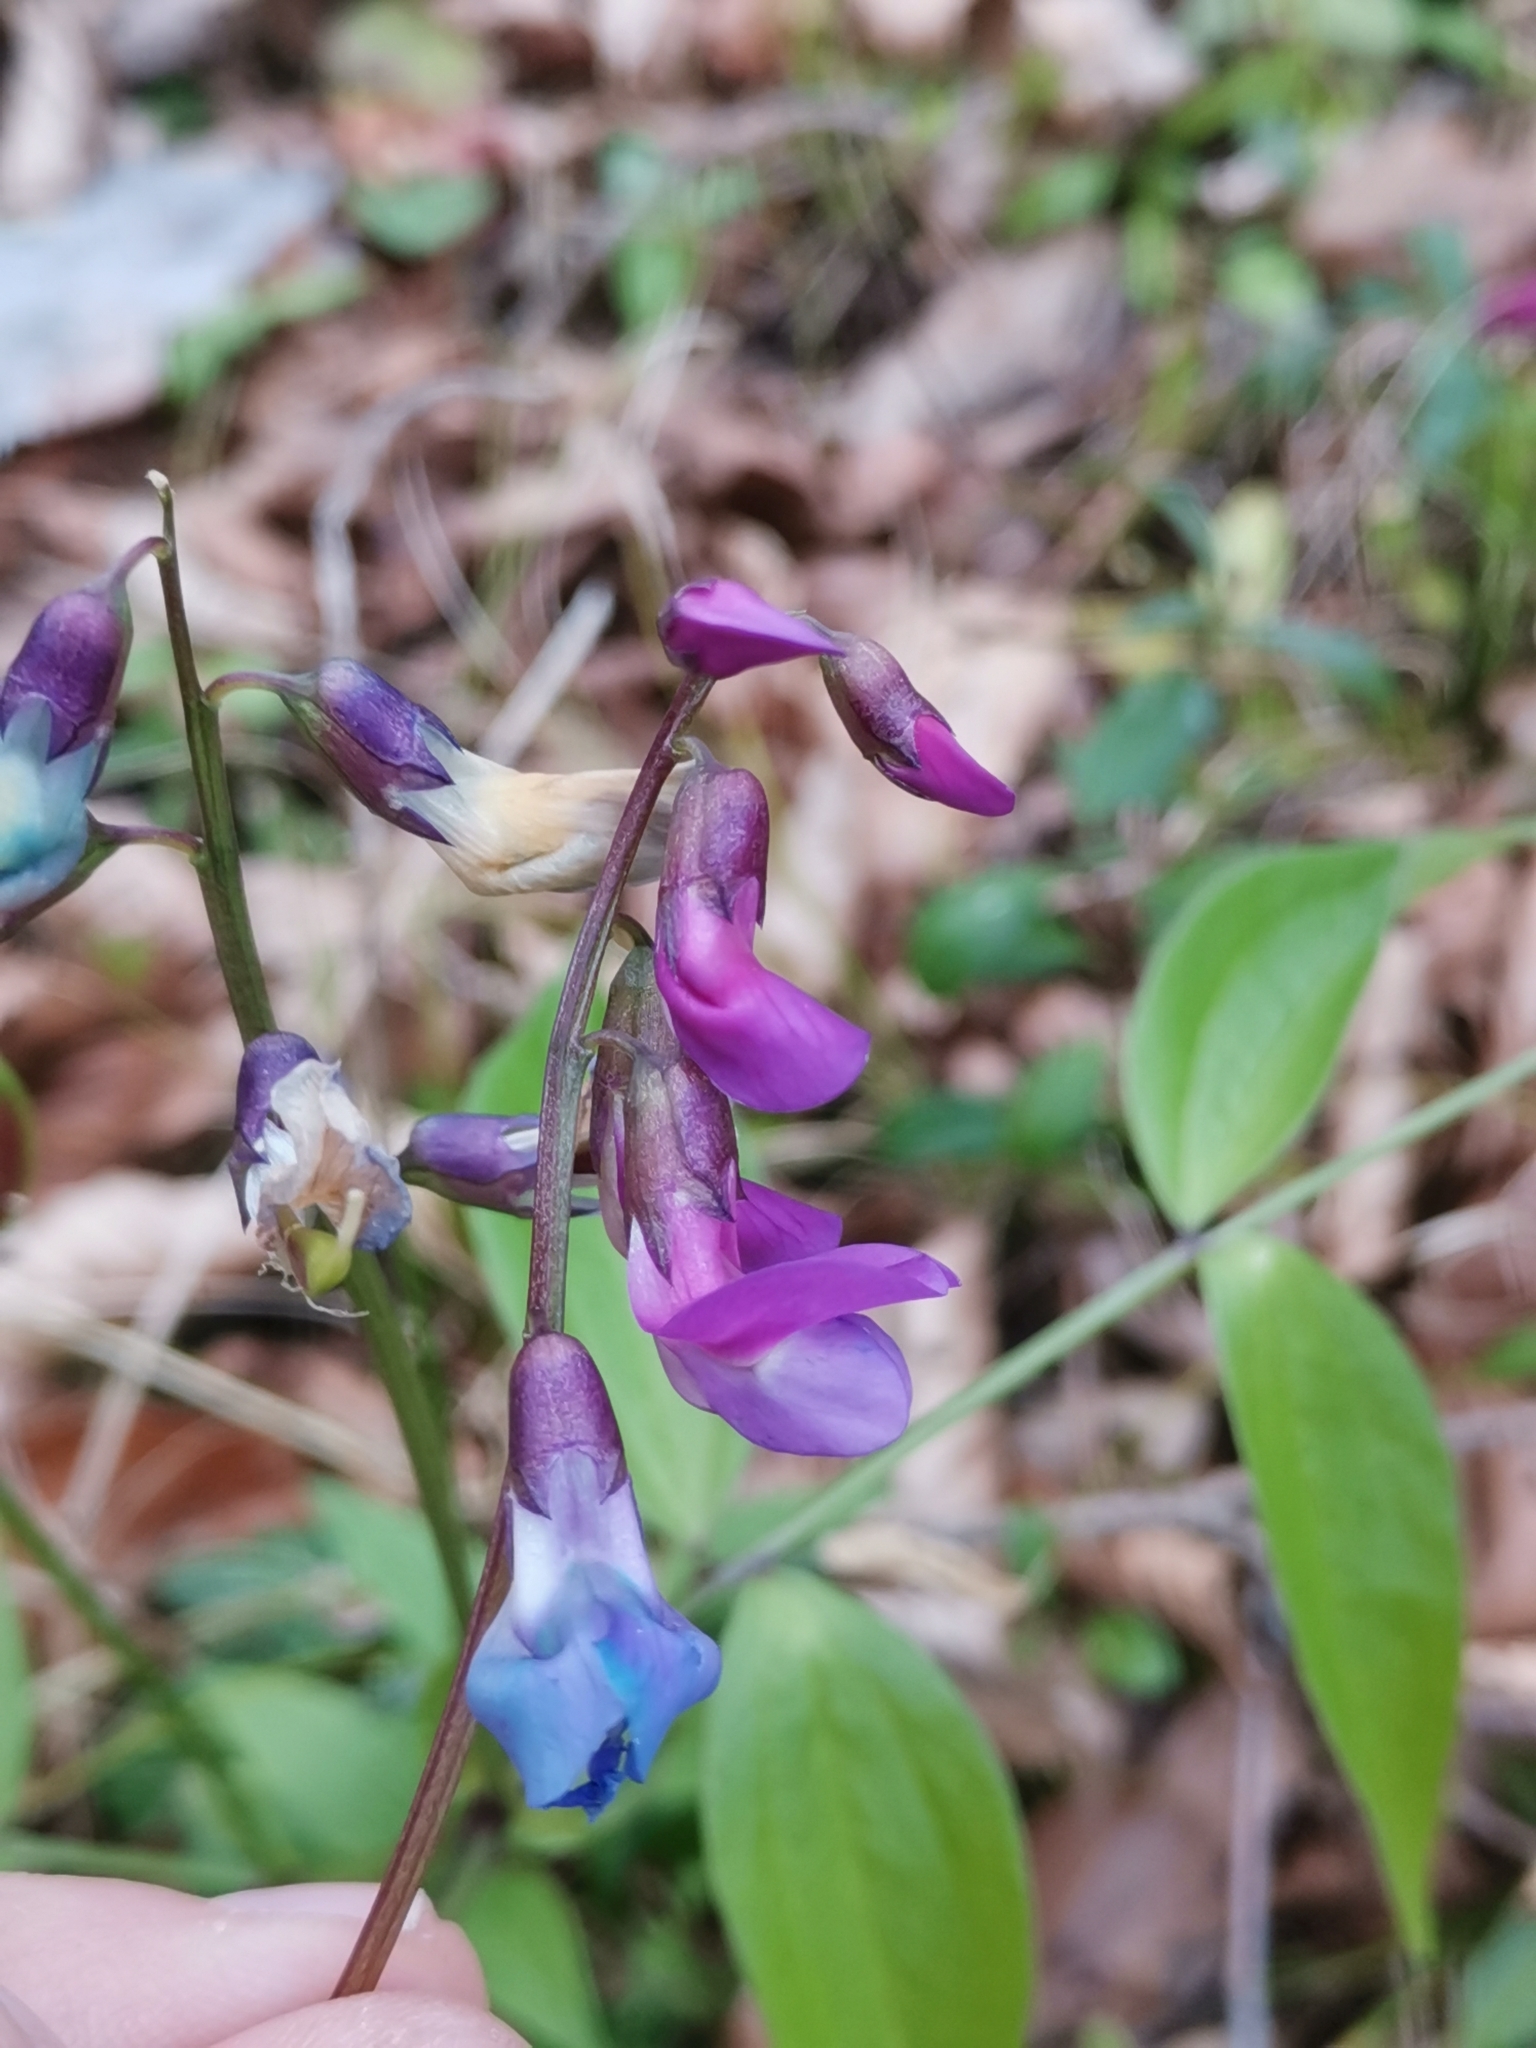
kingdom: Plantae
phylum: Tracheophyta
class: Magnoliopsida
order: Fabales
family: Fabaceae
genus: Lathyrus
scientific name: Lathyrus vernus
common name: Spring pea
